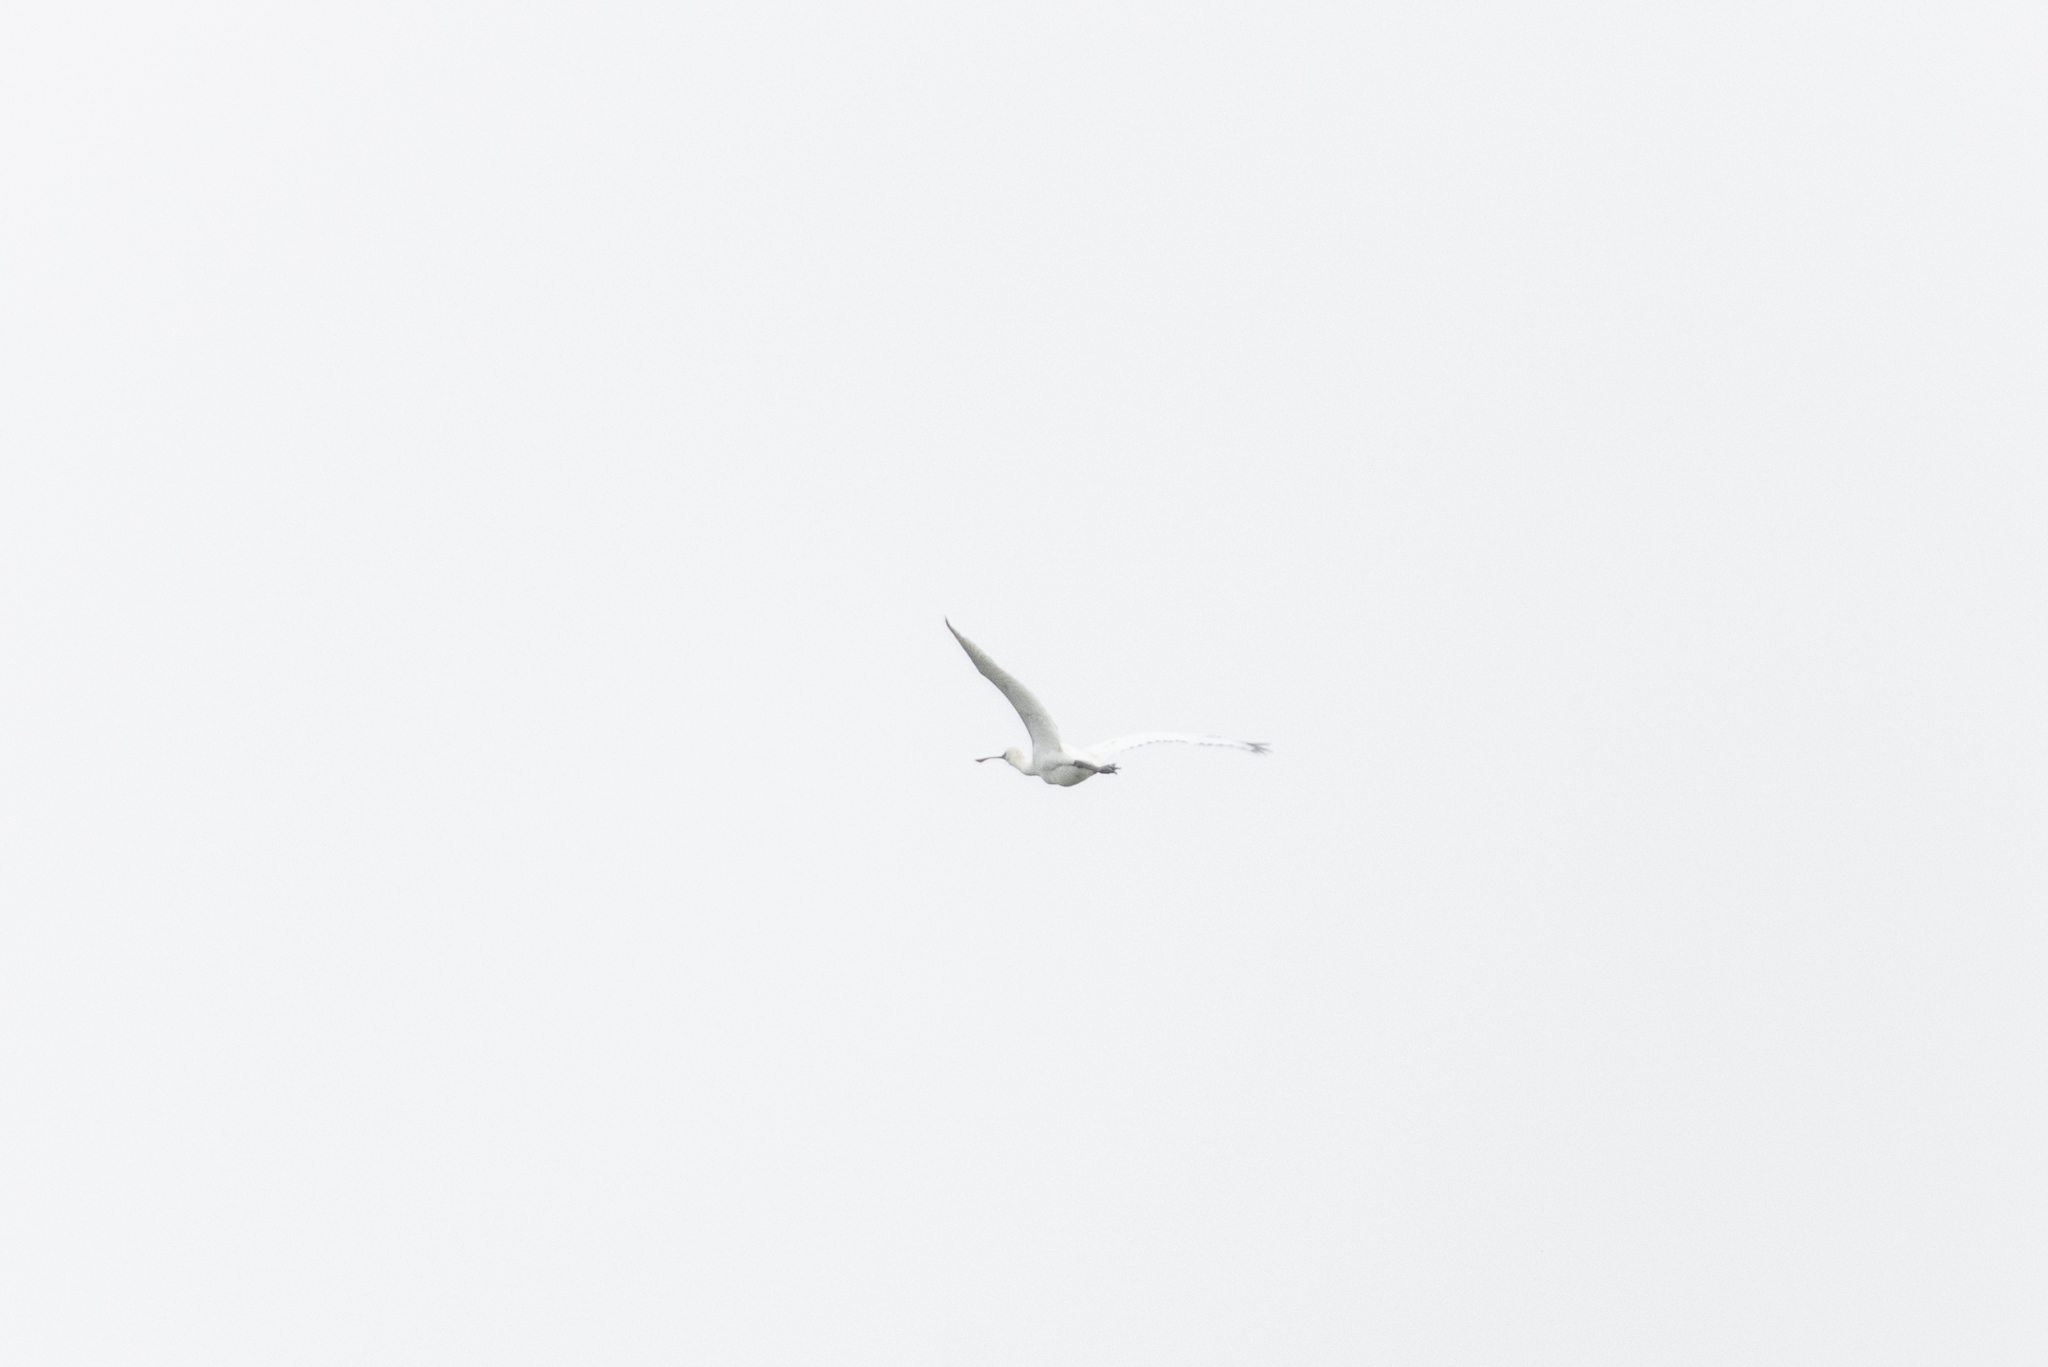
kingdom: Animalia
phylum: Chordata
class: Aves
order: Pelecaniformes
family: Threskiornithidae
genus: Platalea
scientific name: Platalea minor
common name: Black-faced spoonbill
